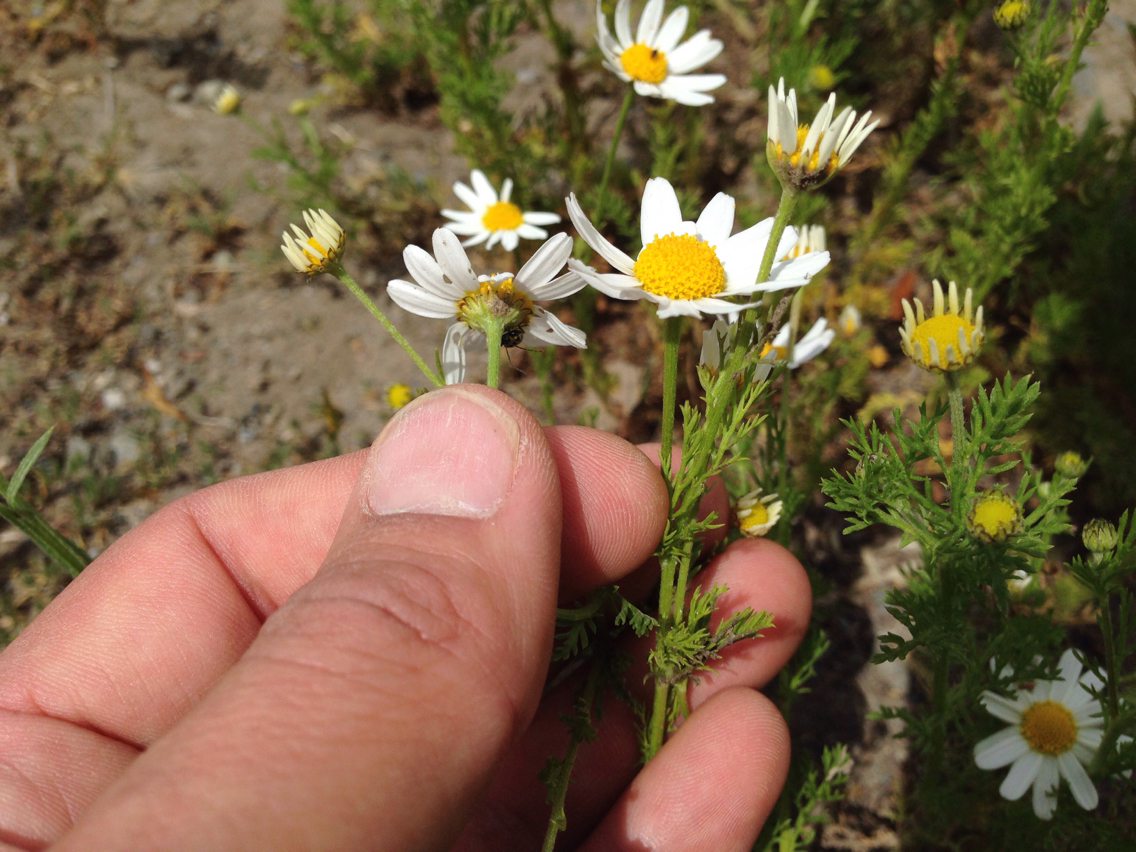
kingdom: Plantae
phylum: Tracheophyta
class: Magnoliopsida
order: Asterales
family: Asteraceae
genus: Anthemis
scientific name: Anthemis cotula
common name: Stinking chamomile
